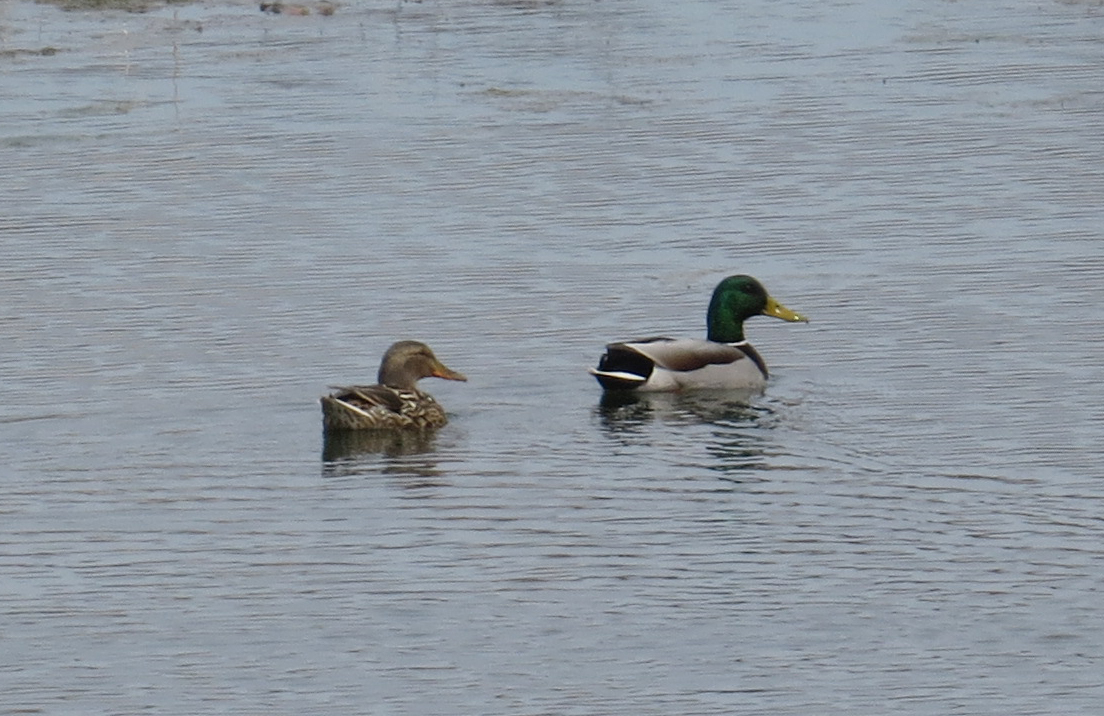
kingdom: Animalia
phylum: Chordata
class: Aves
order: Anseriformes
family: Anatidae
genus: Anas
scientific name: Anas platyrhynchos
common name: Mallard
